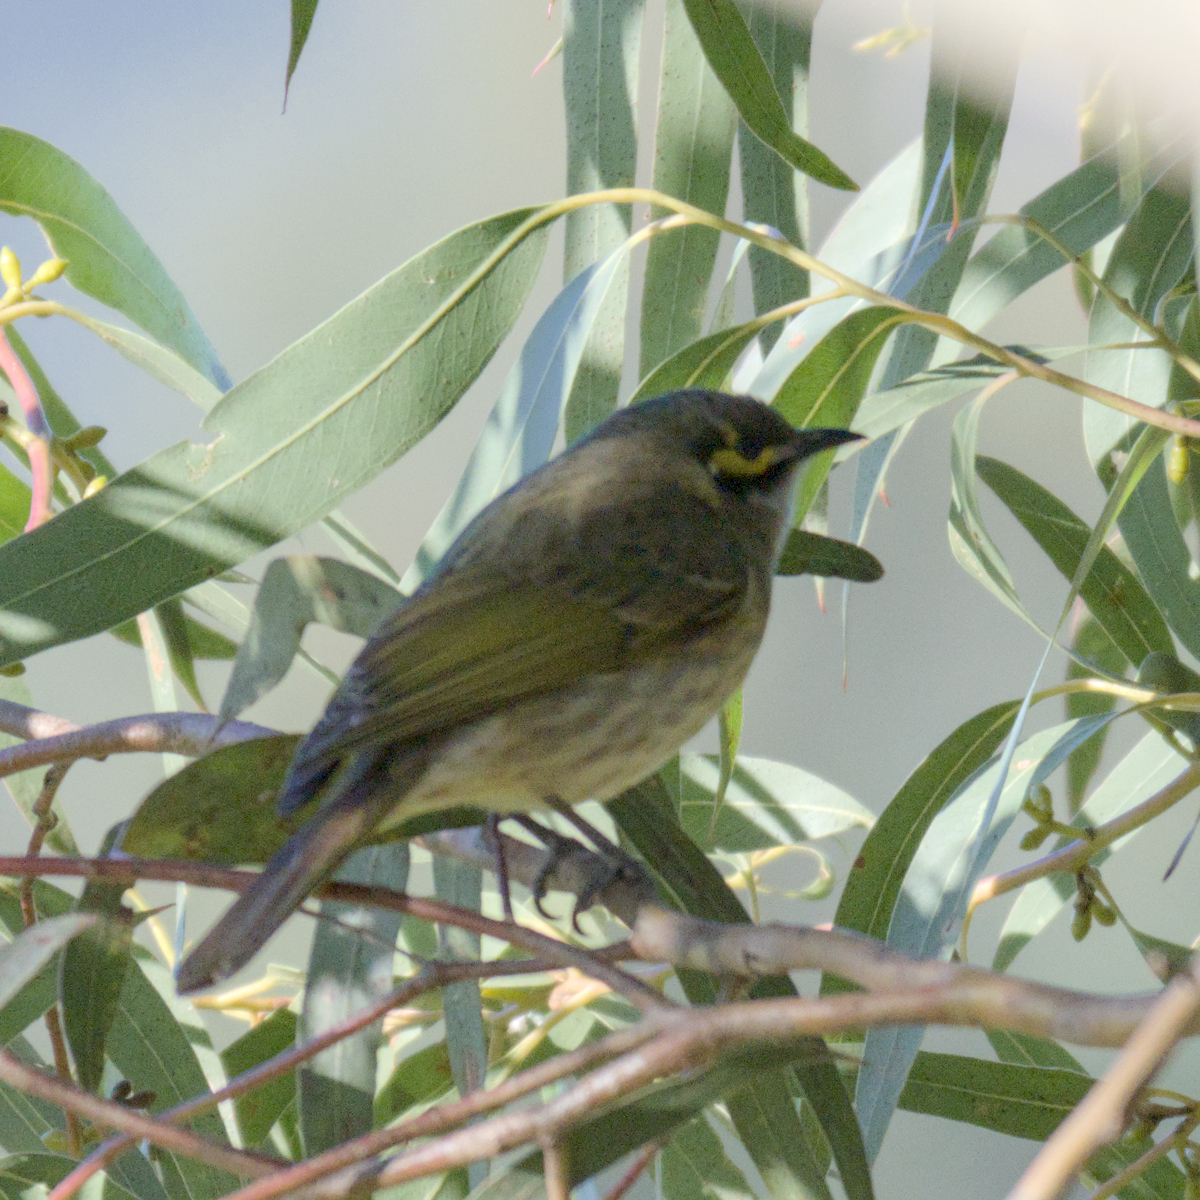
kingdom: Animalia
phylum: Chordata
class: Aves
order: Passeriformes
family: Meliphagidae
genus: Caligavis
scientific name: Caligavis chrysops
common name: Yellow-faced honeyeater
